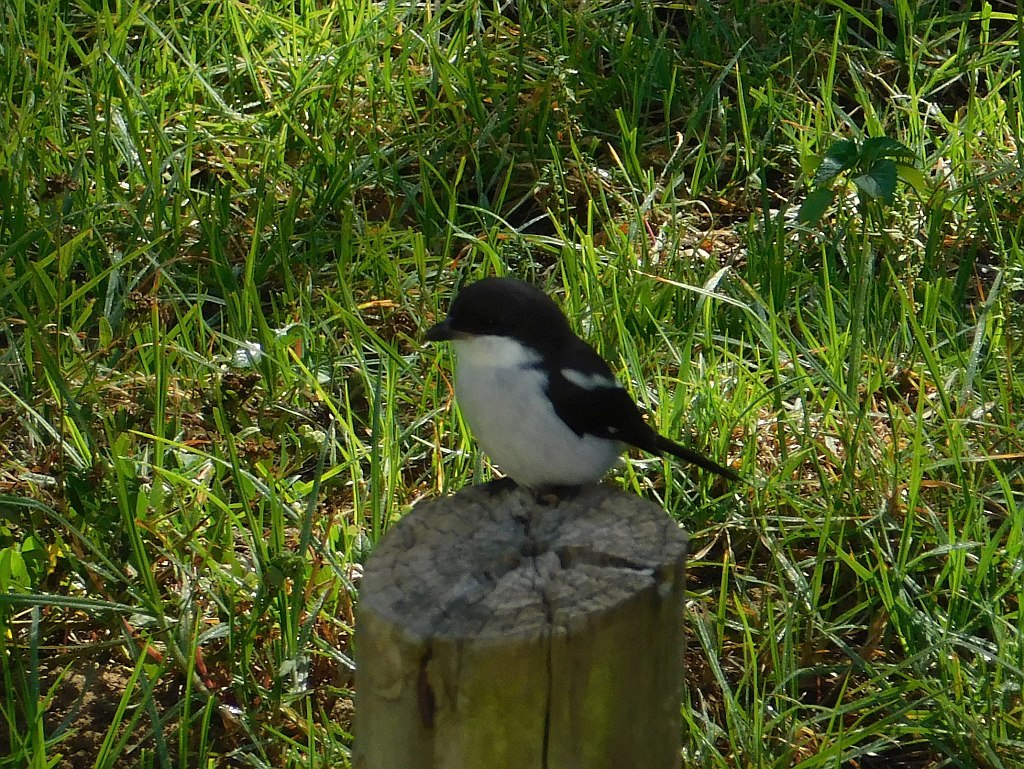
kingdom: Animalia
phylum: Chordata
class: Aves
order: Passeriformes
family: Laniidae
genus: Lanius
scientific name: Lanius collaris
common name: Southern fiscal
